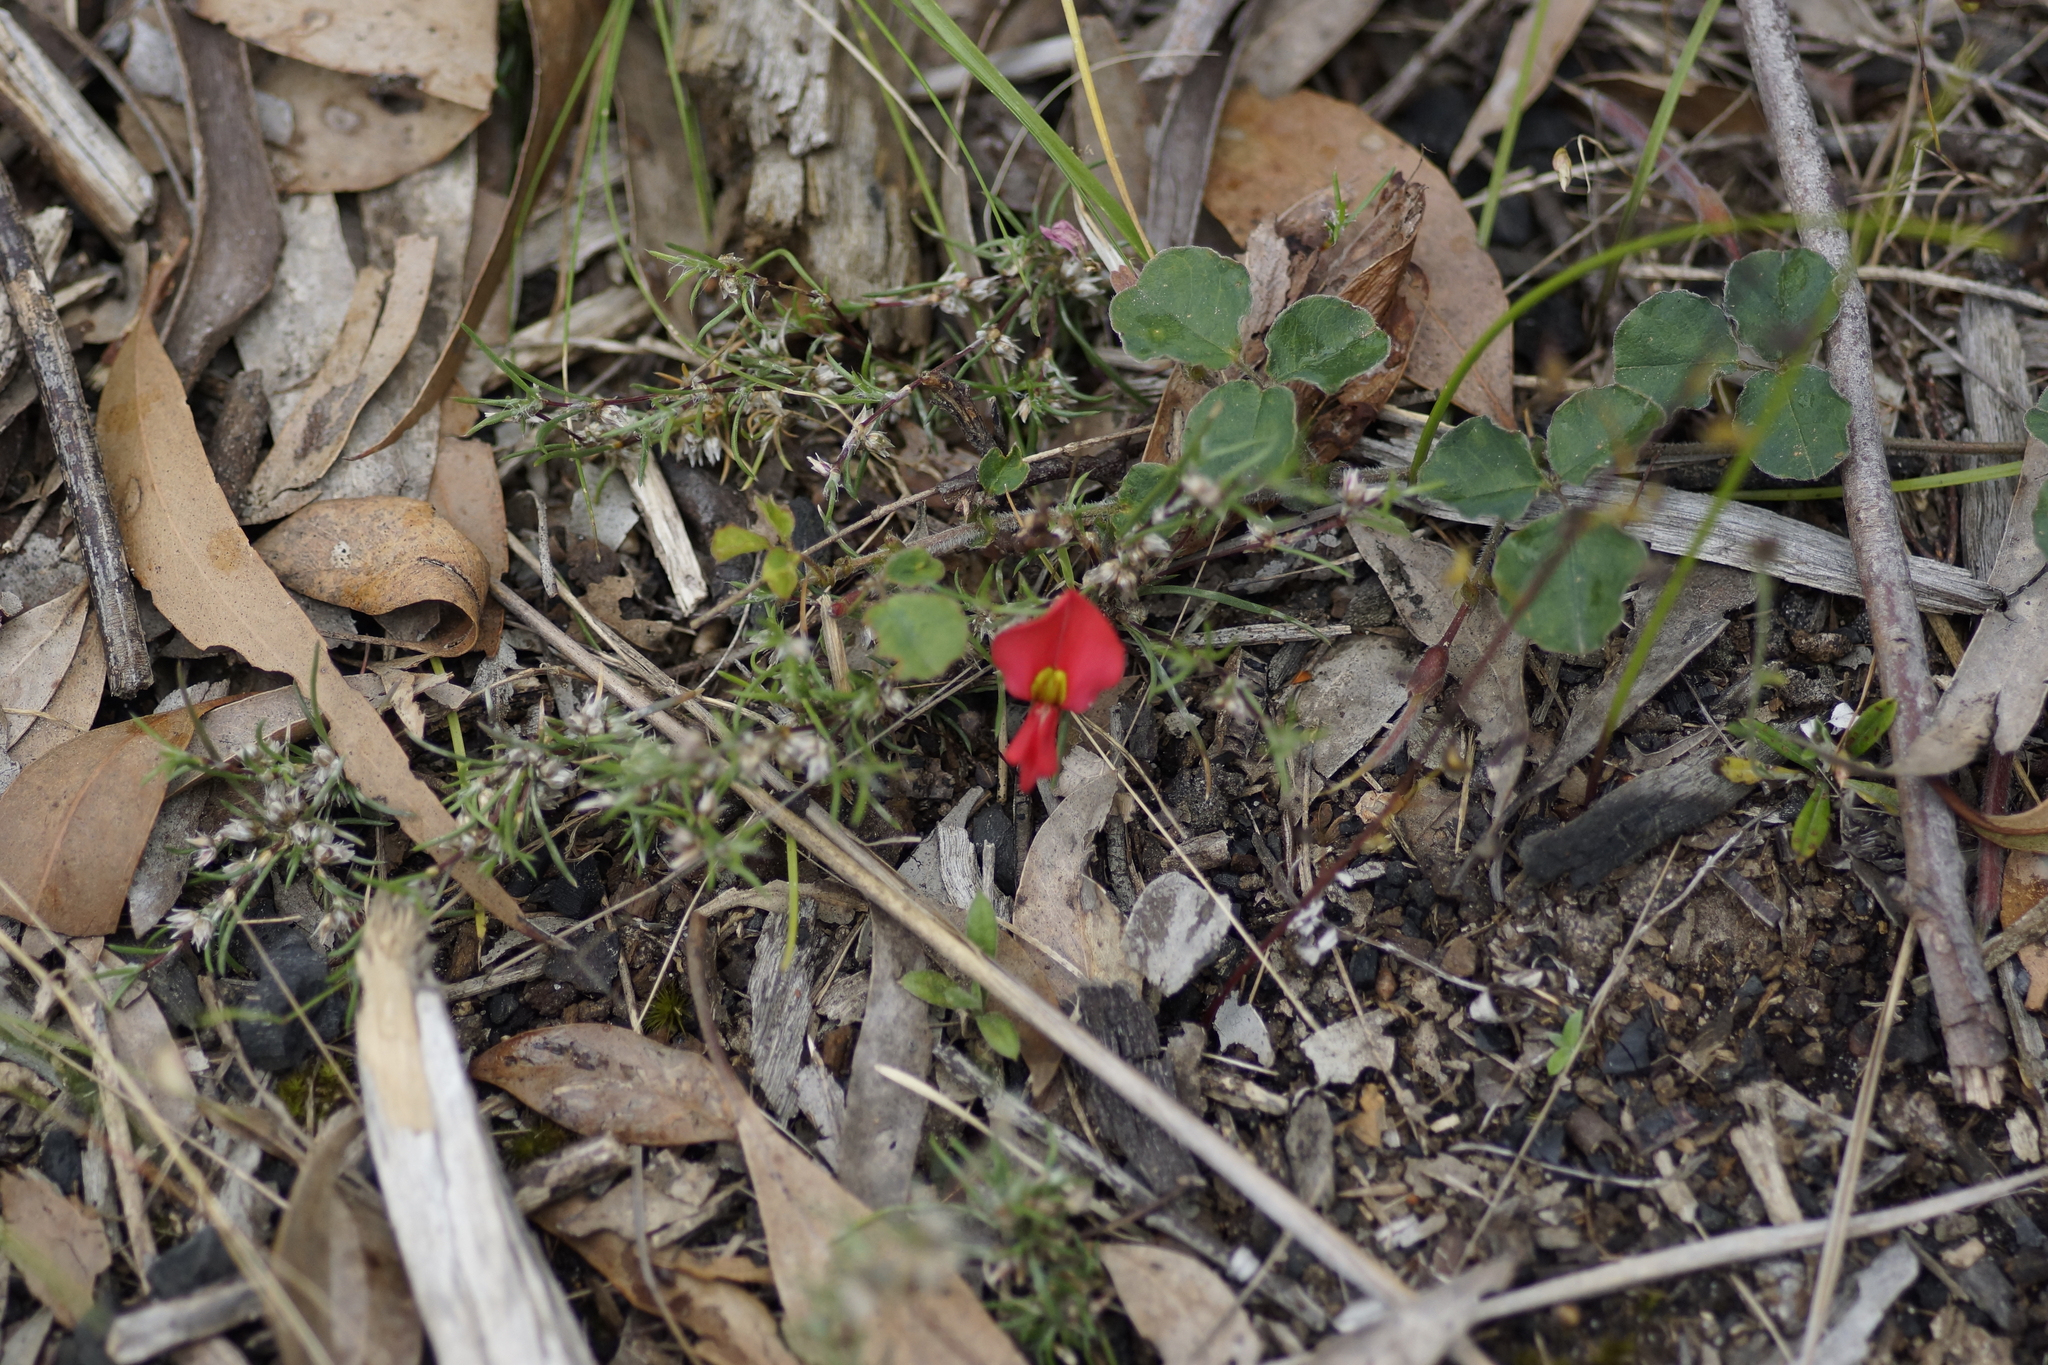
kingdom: Plantae
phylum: Tracheophyta
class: Magnoliopsida
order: Fabales
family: Fabaceae
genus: Kennedia
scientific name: Kennedia prostrata
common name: Running-postman
